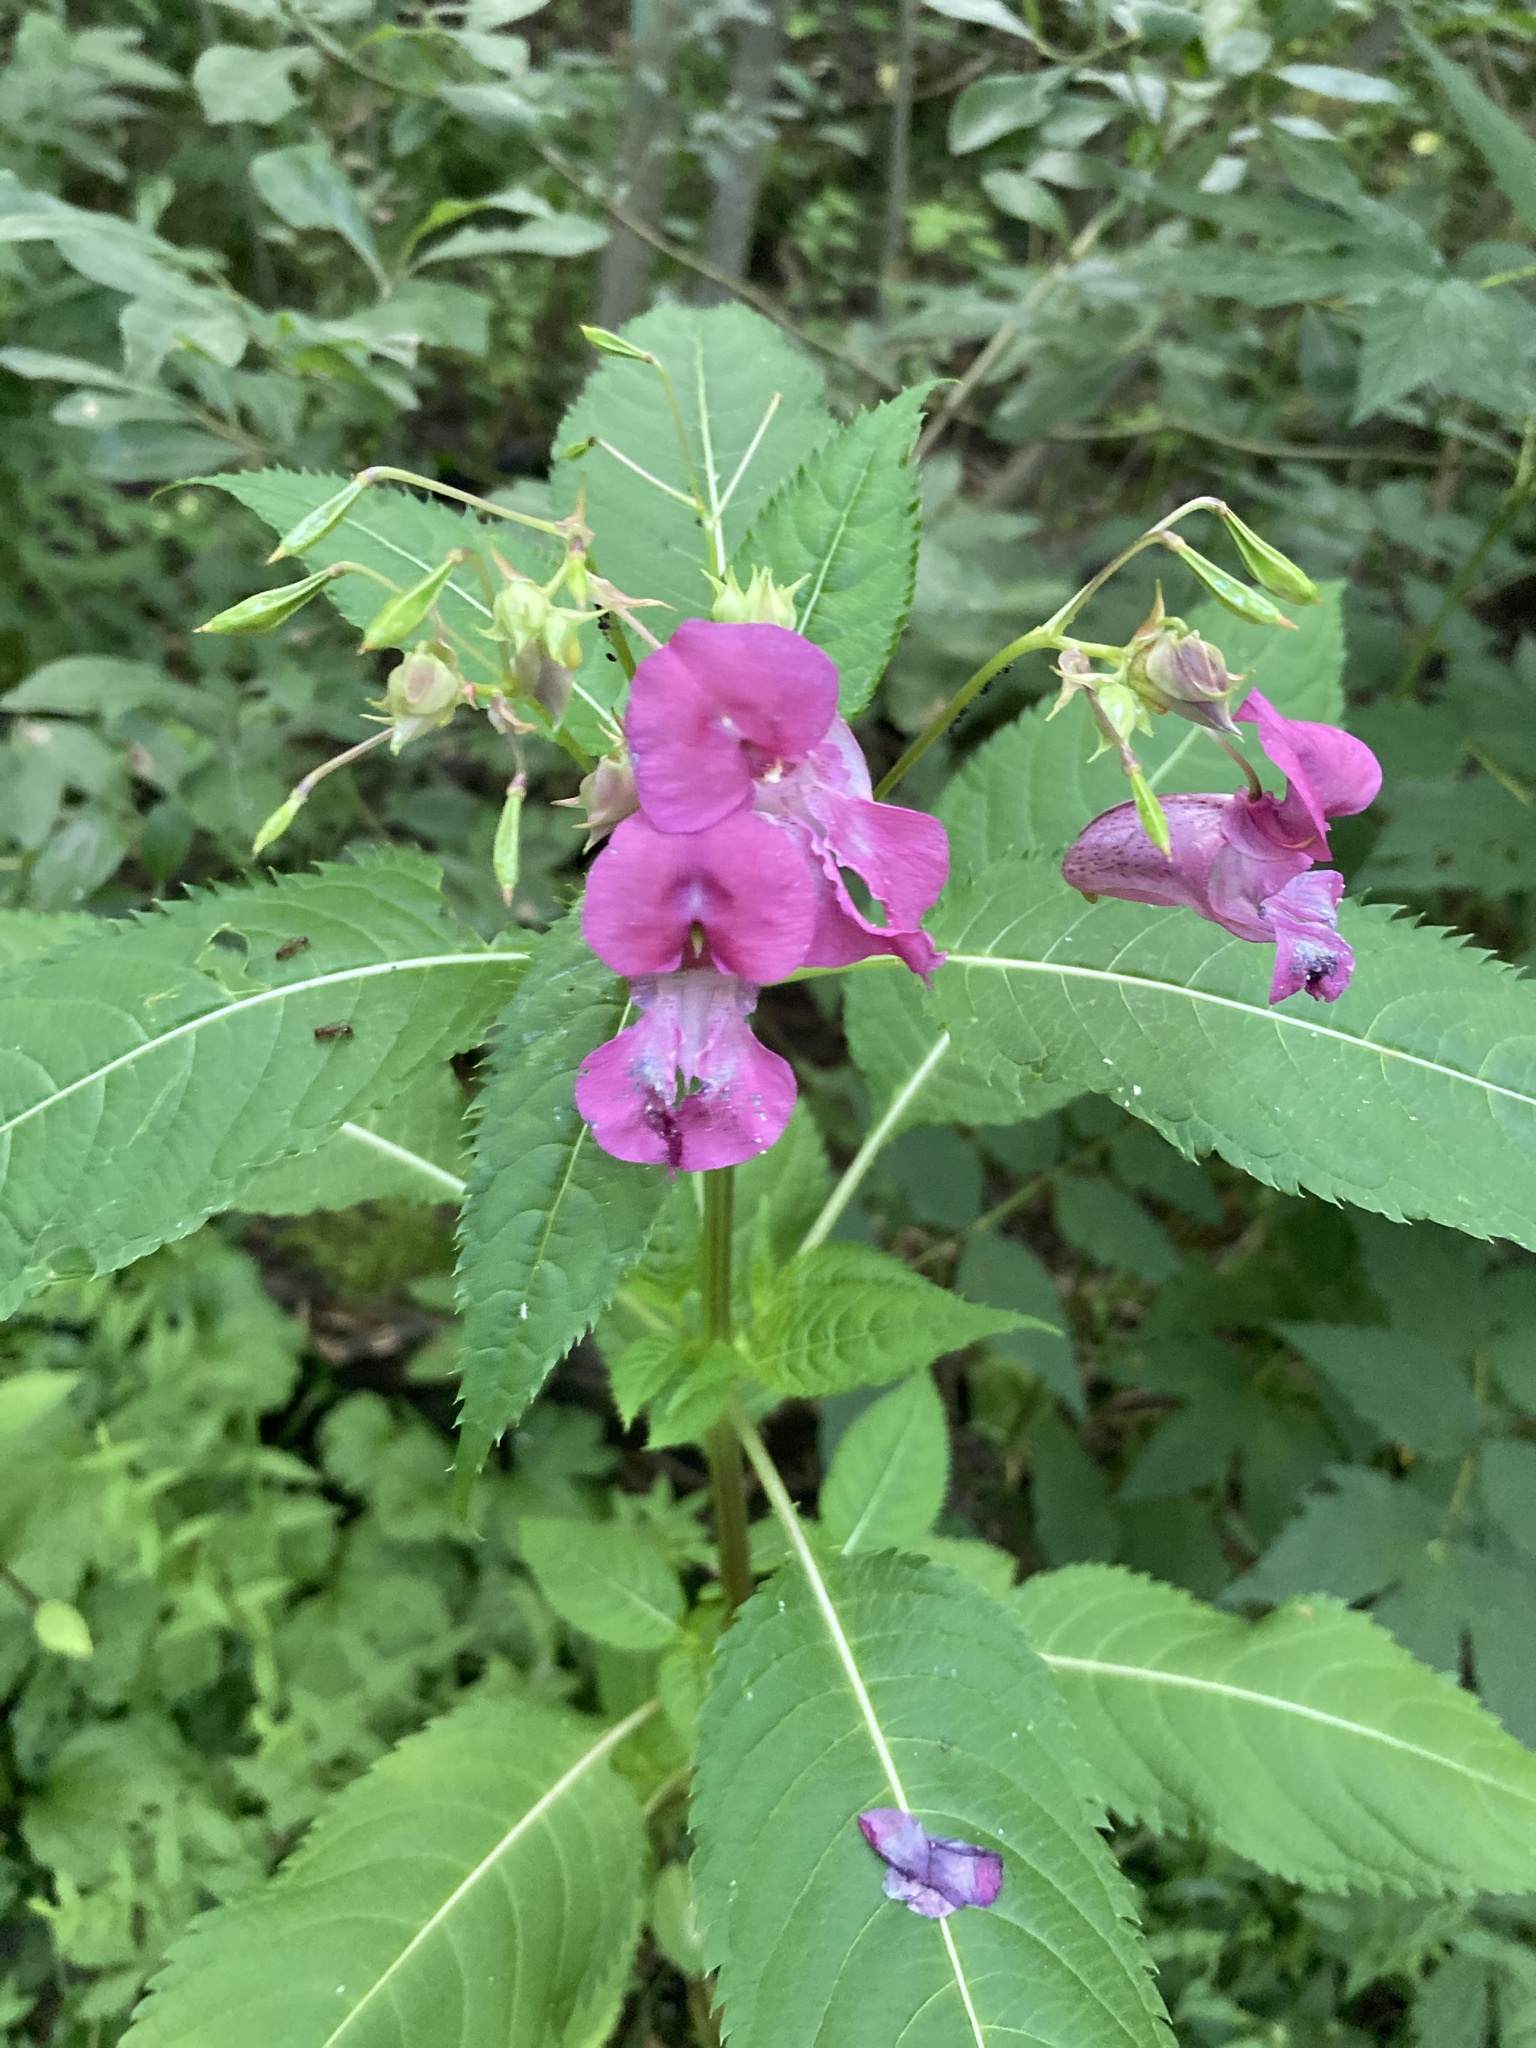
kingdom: Plantae
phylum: Tracheophyta
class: Magnoliopsida
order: Ericales
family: Balsaminaceae
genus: Impatiens
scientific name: Impatiens glandulifera
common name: Himalayan balsam
